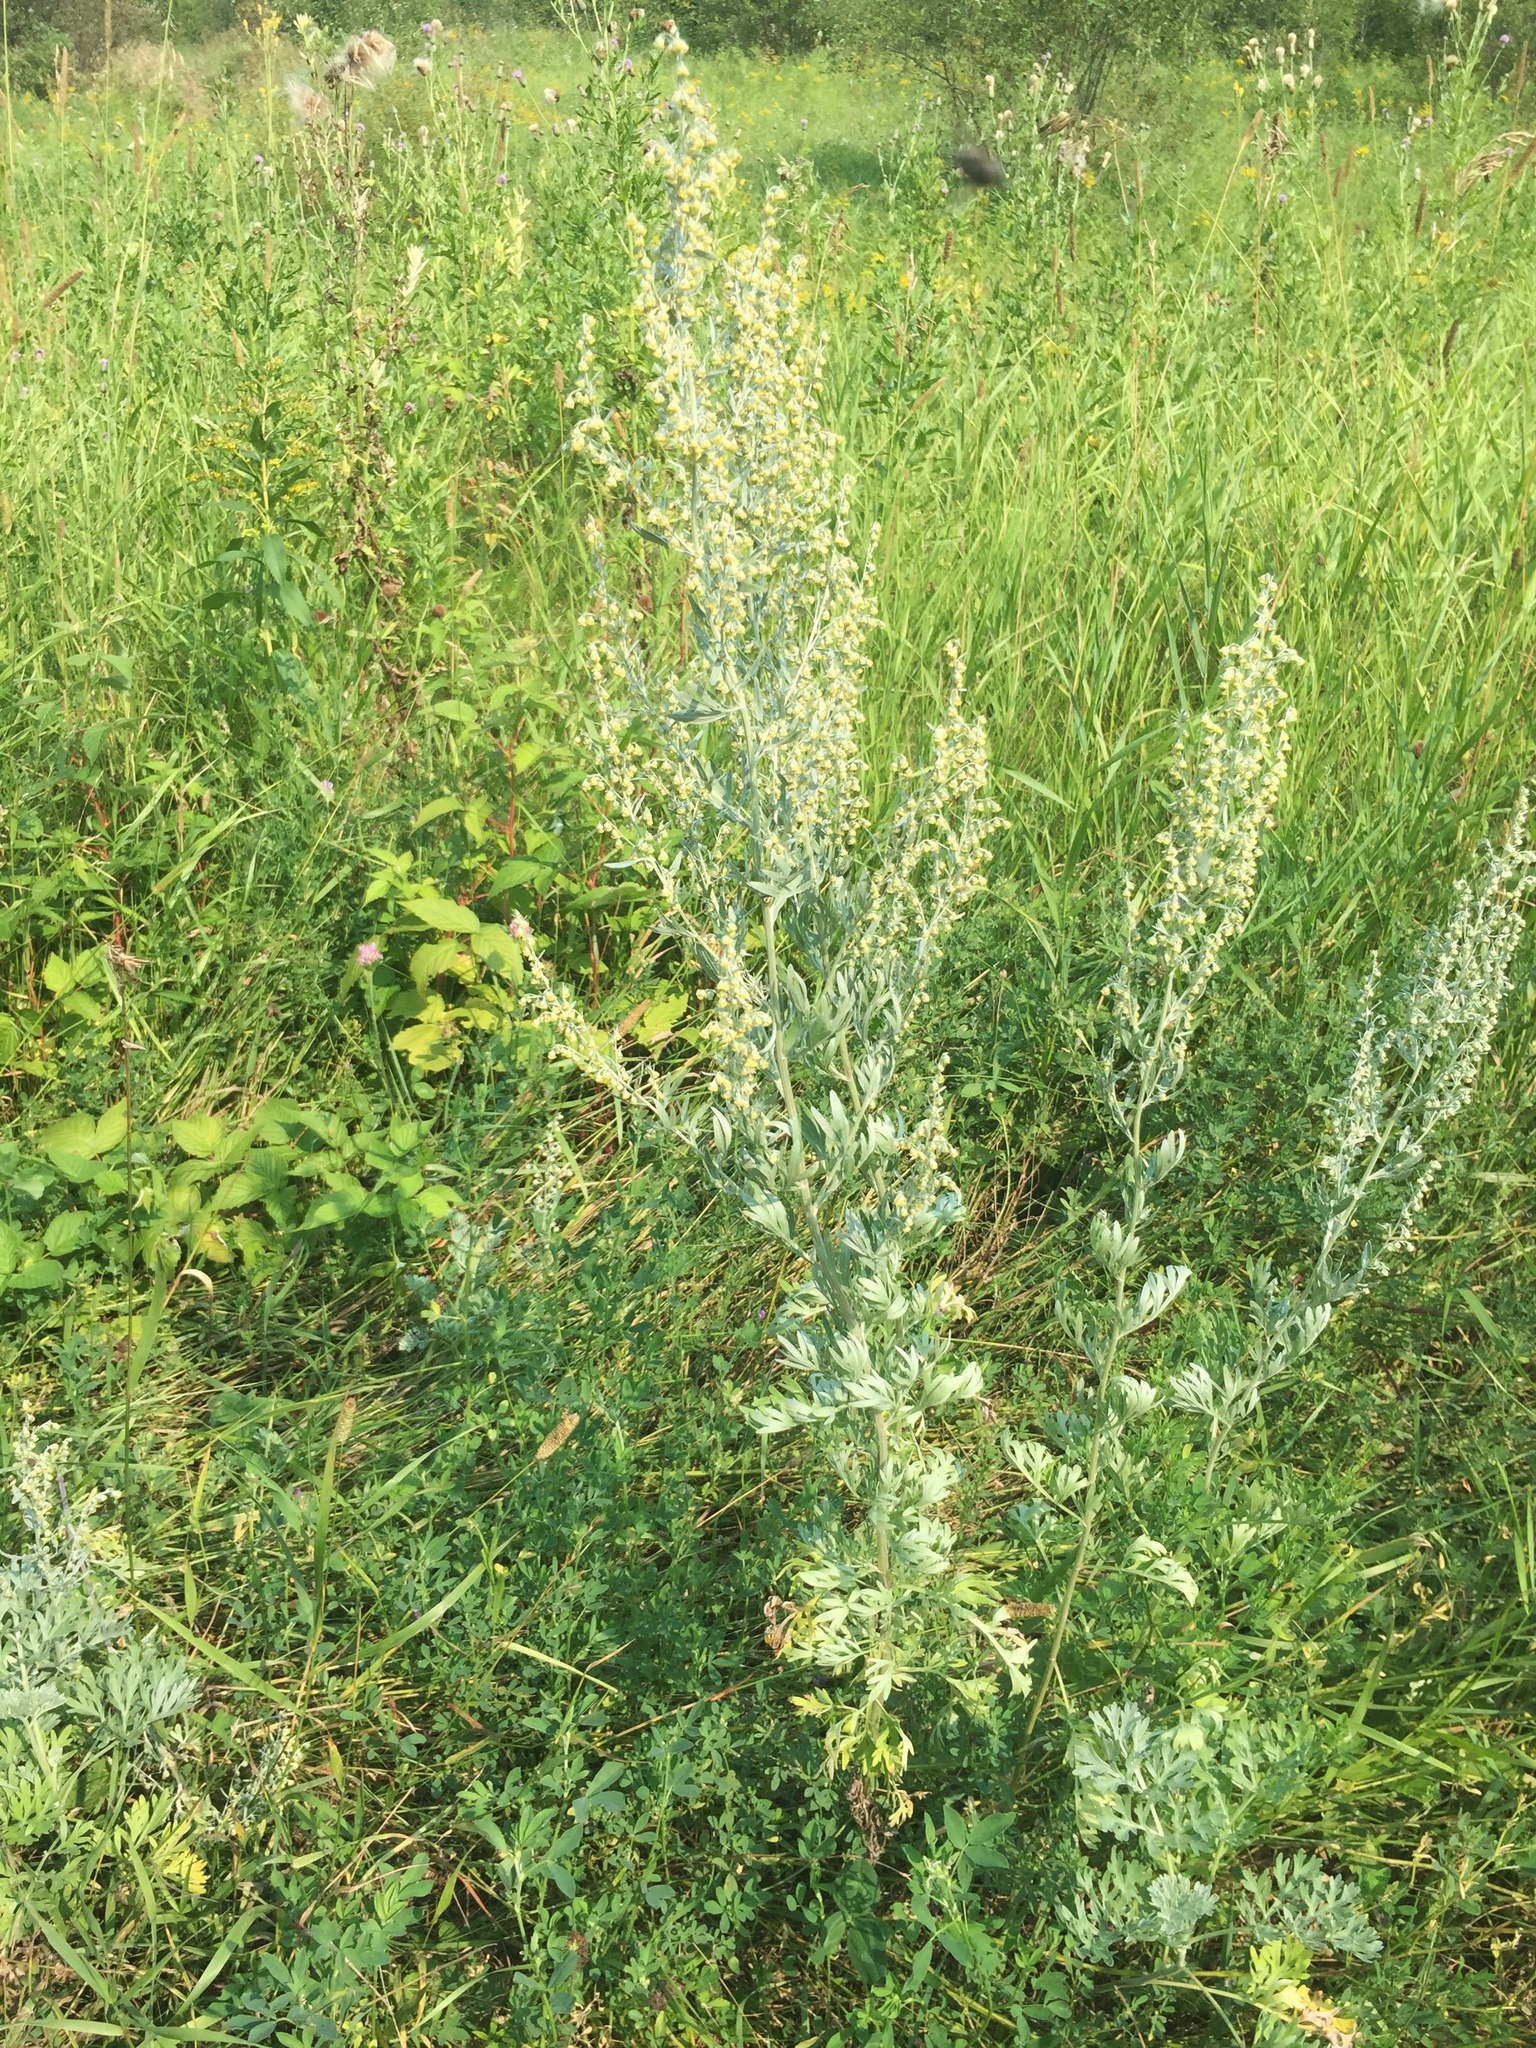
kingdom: Plantae
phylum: Tracheophyta
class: Magnoliopsida
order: Asterales
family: Asteraceae
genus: Artemisia
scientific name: Artemisia absinthium
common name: Wormwood
